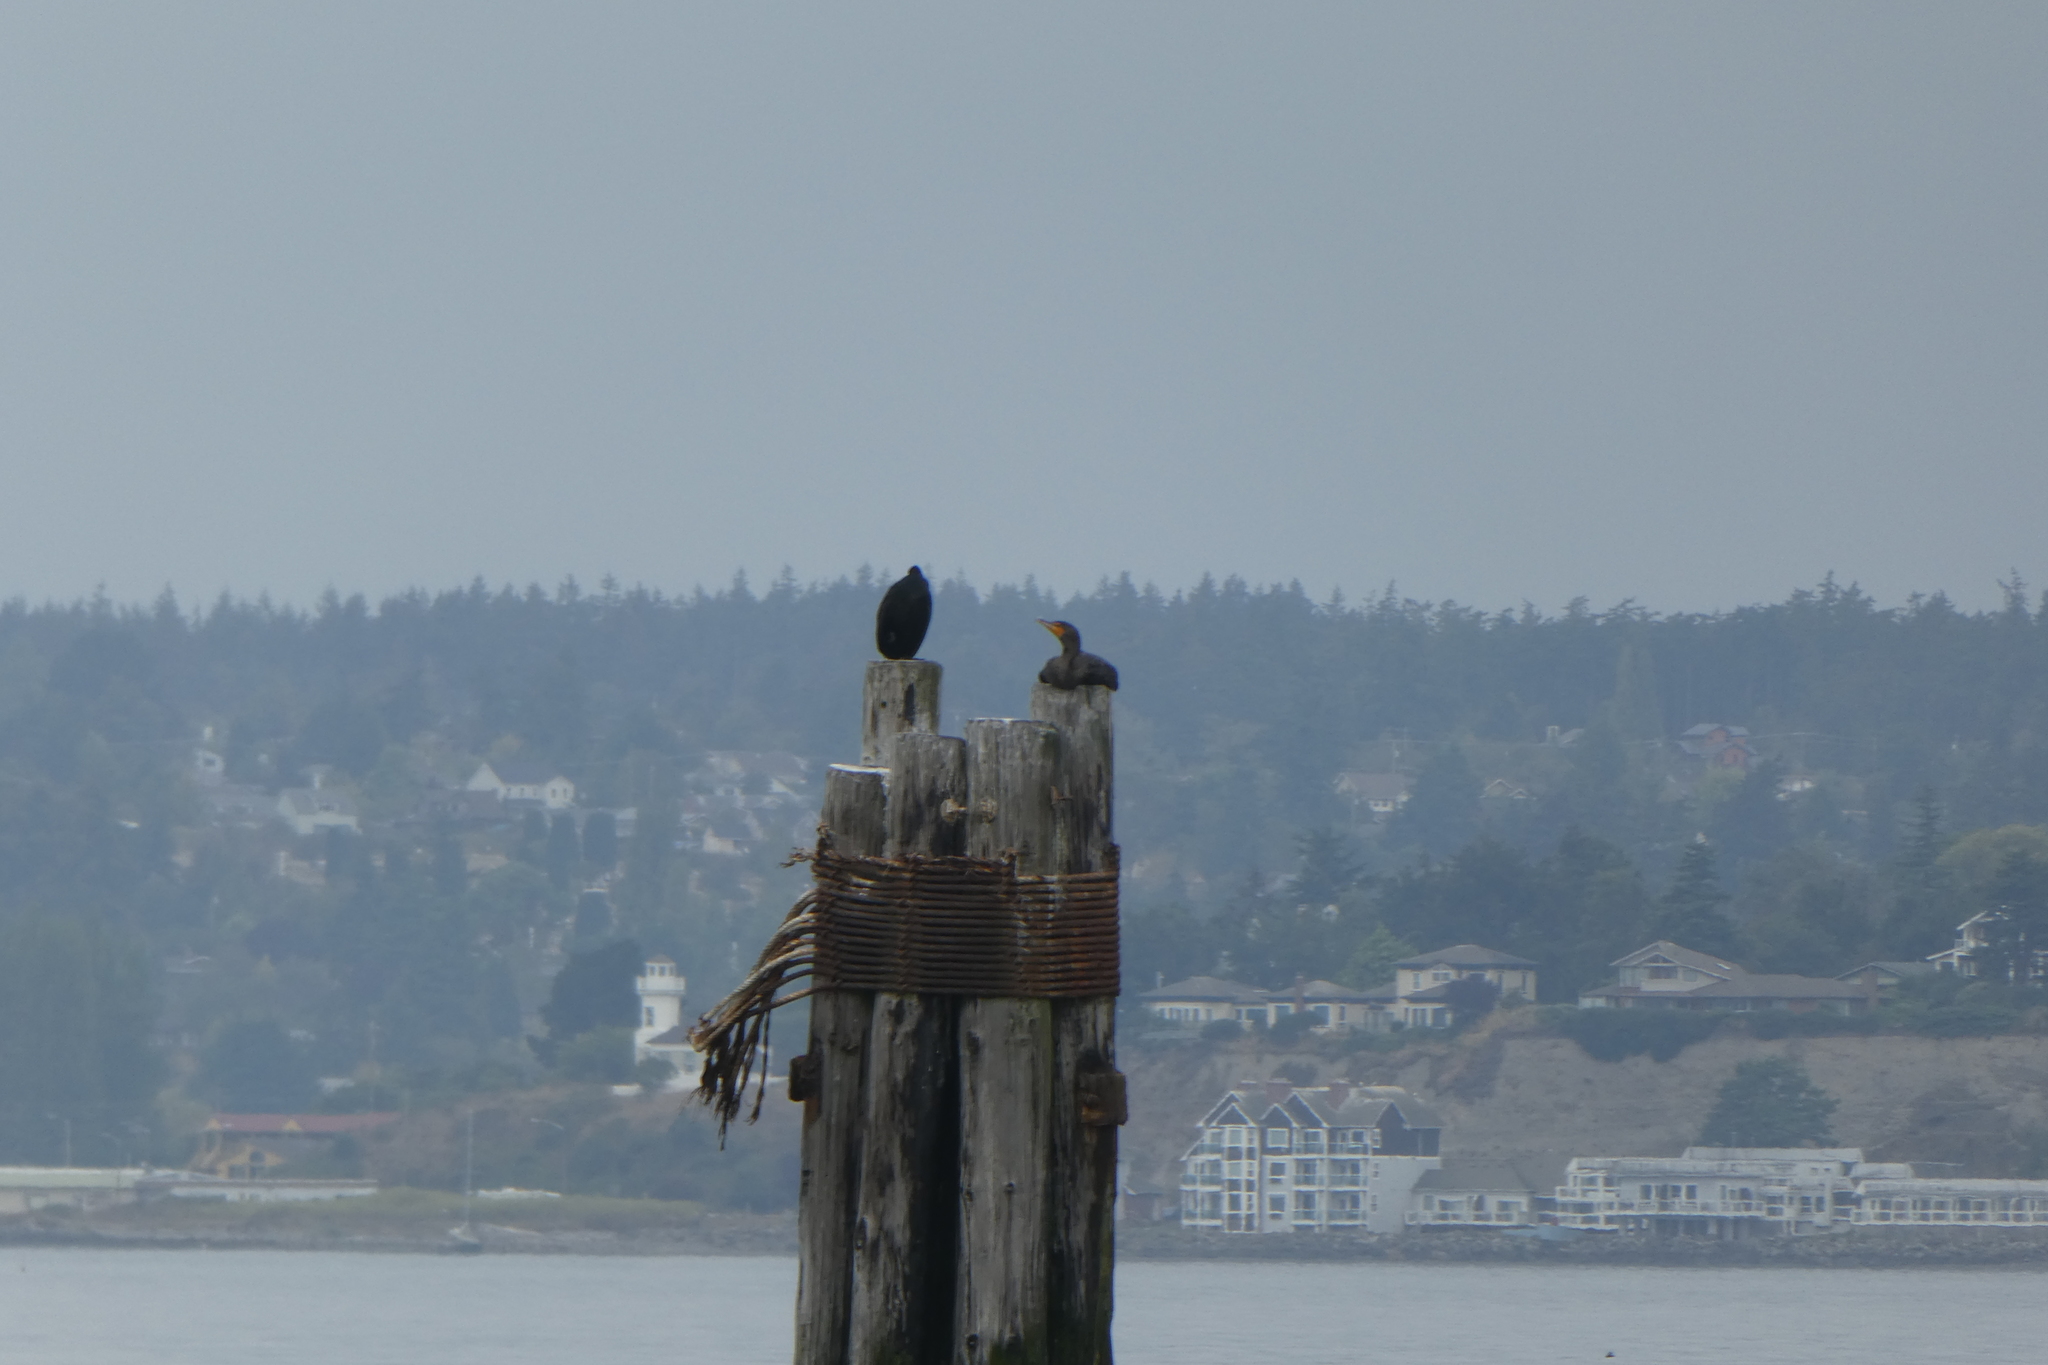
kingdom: Animalia
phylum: Chordata
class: Aves
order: Suliformes
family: Phalacrocoracidae
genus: Phalacrocorax
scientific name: Phalacrocorax auritus
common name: Double-crested cormorant
